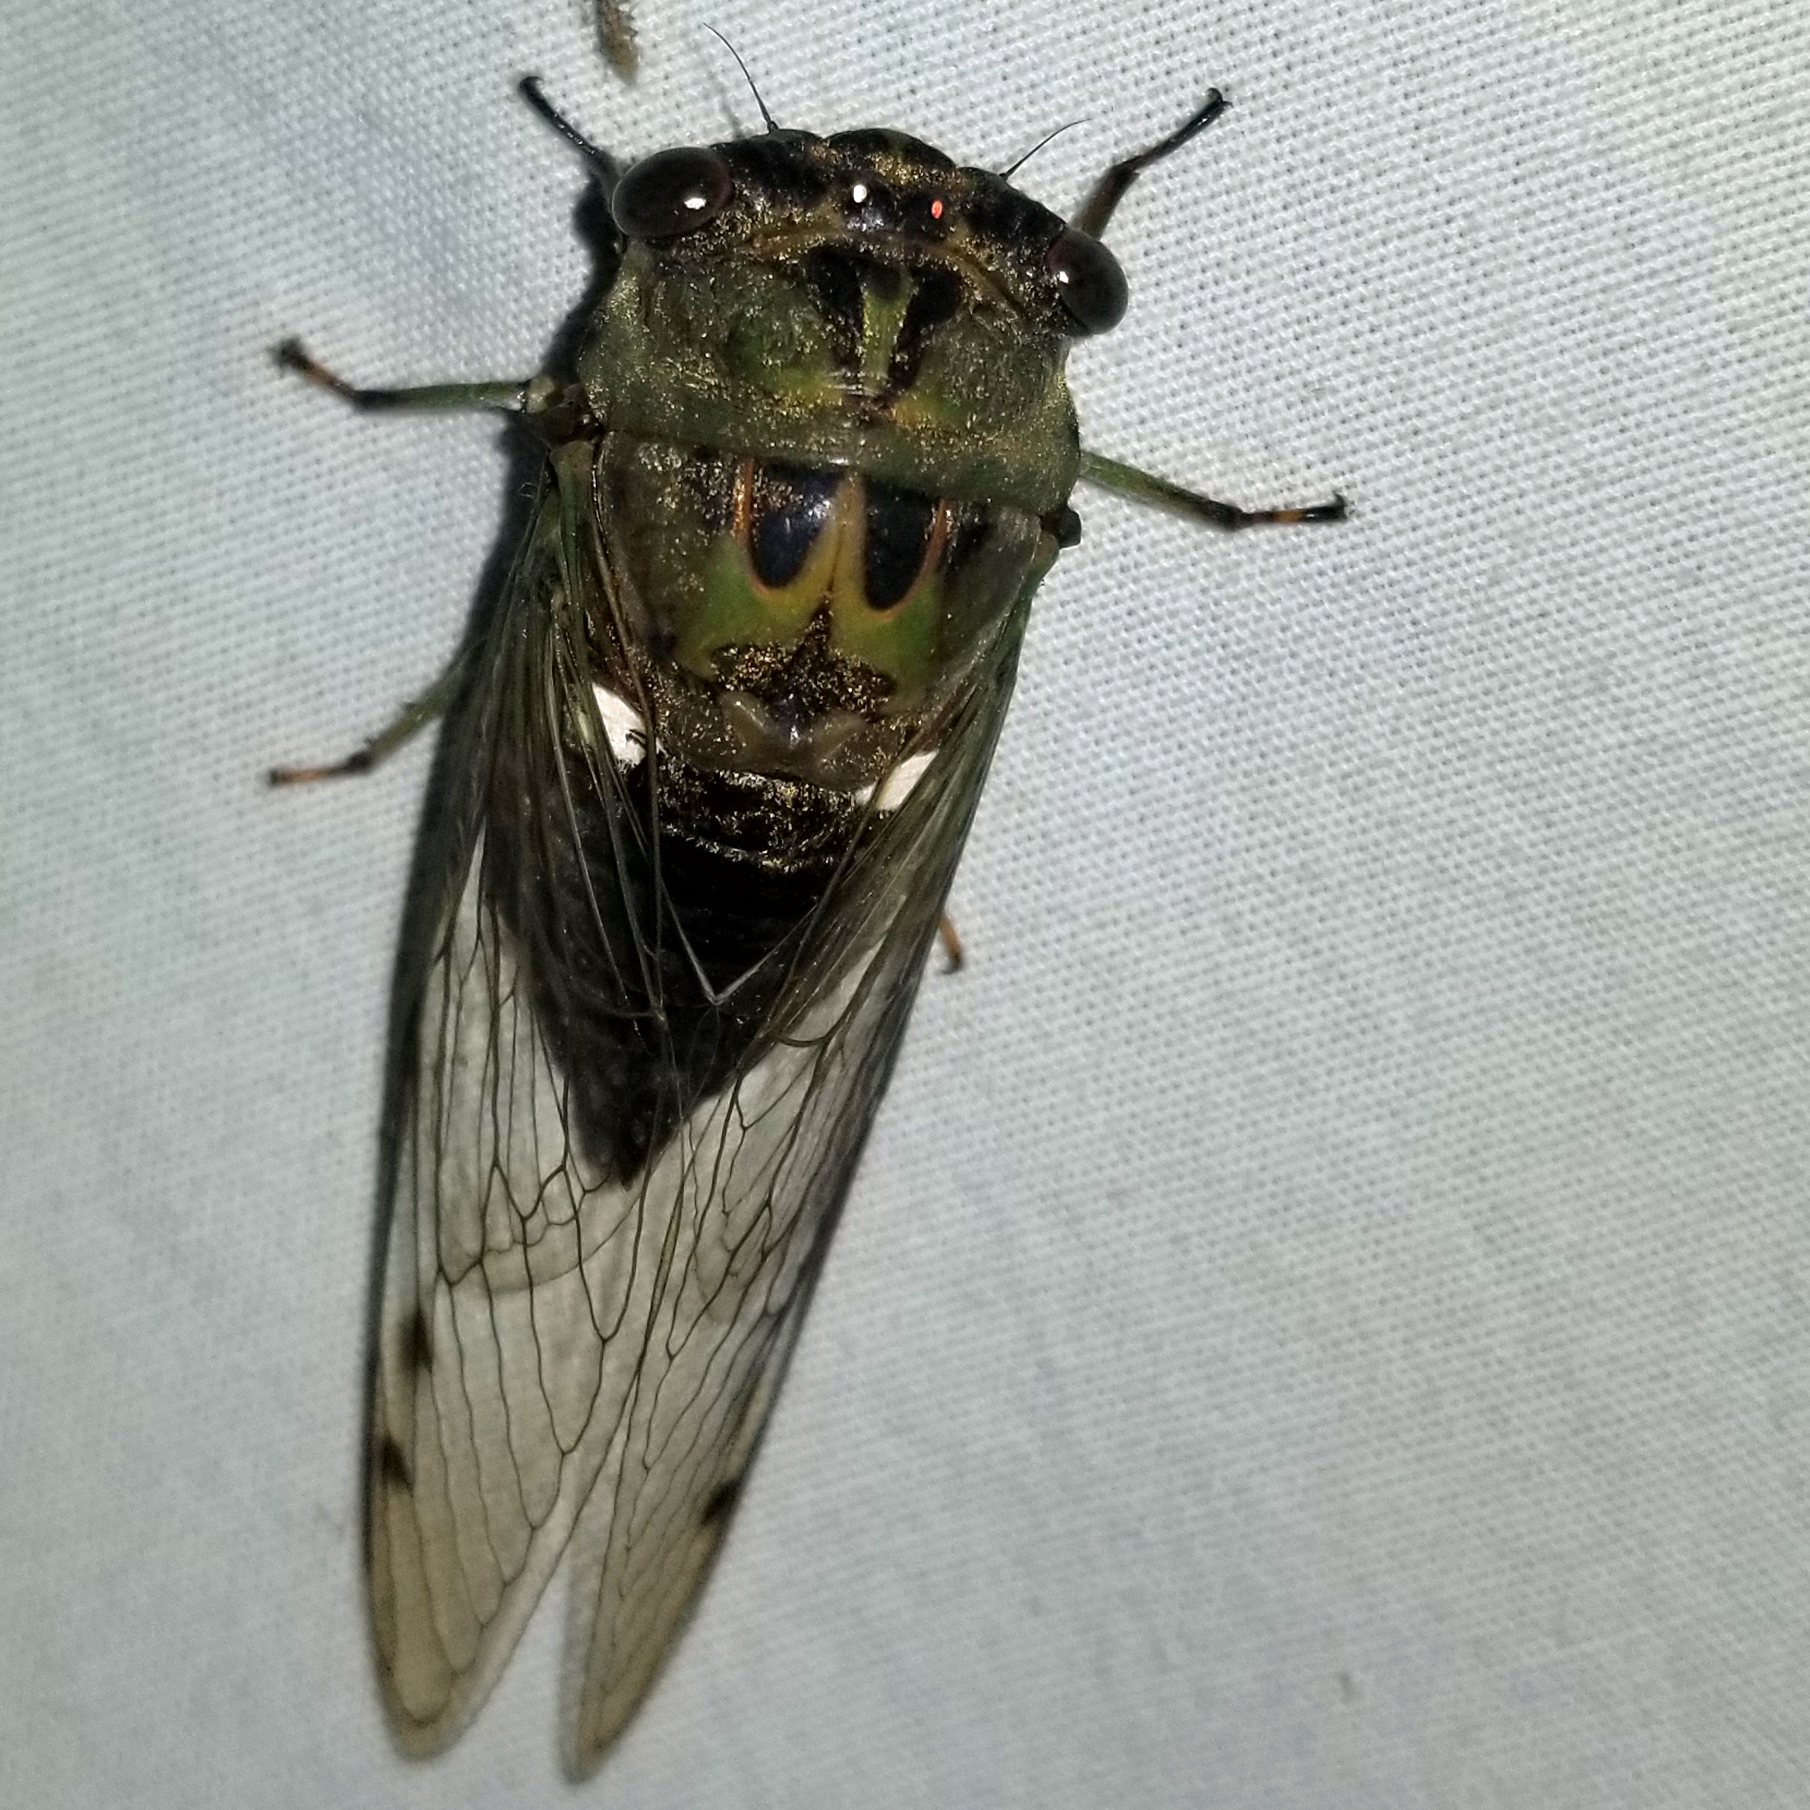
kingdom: Animalia
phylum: Arthropoda
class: Insecta
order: Hemiptera
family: Cicadidae
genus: Neotibicen
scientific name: Neotibicen pruinosus
